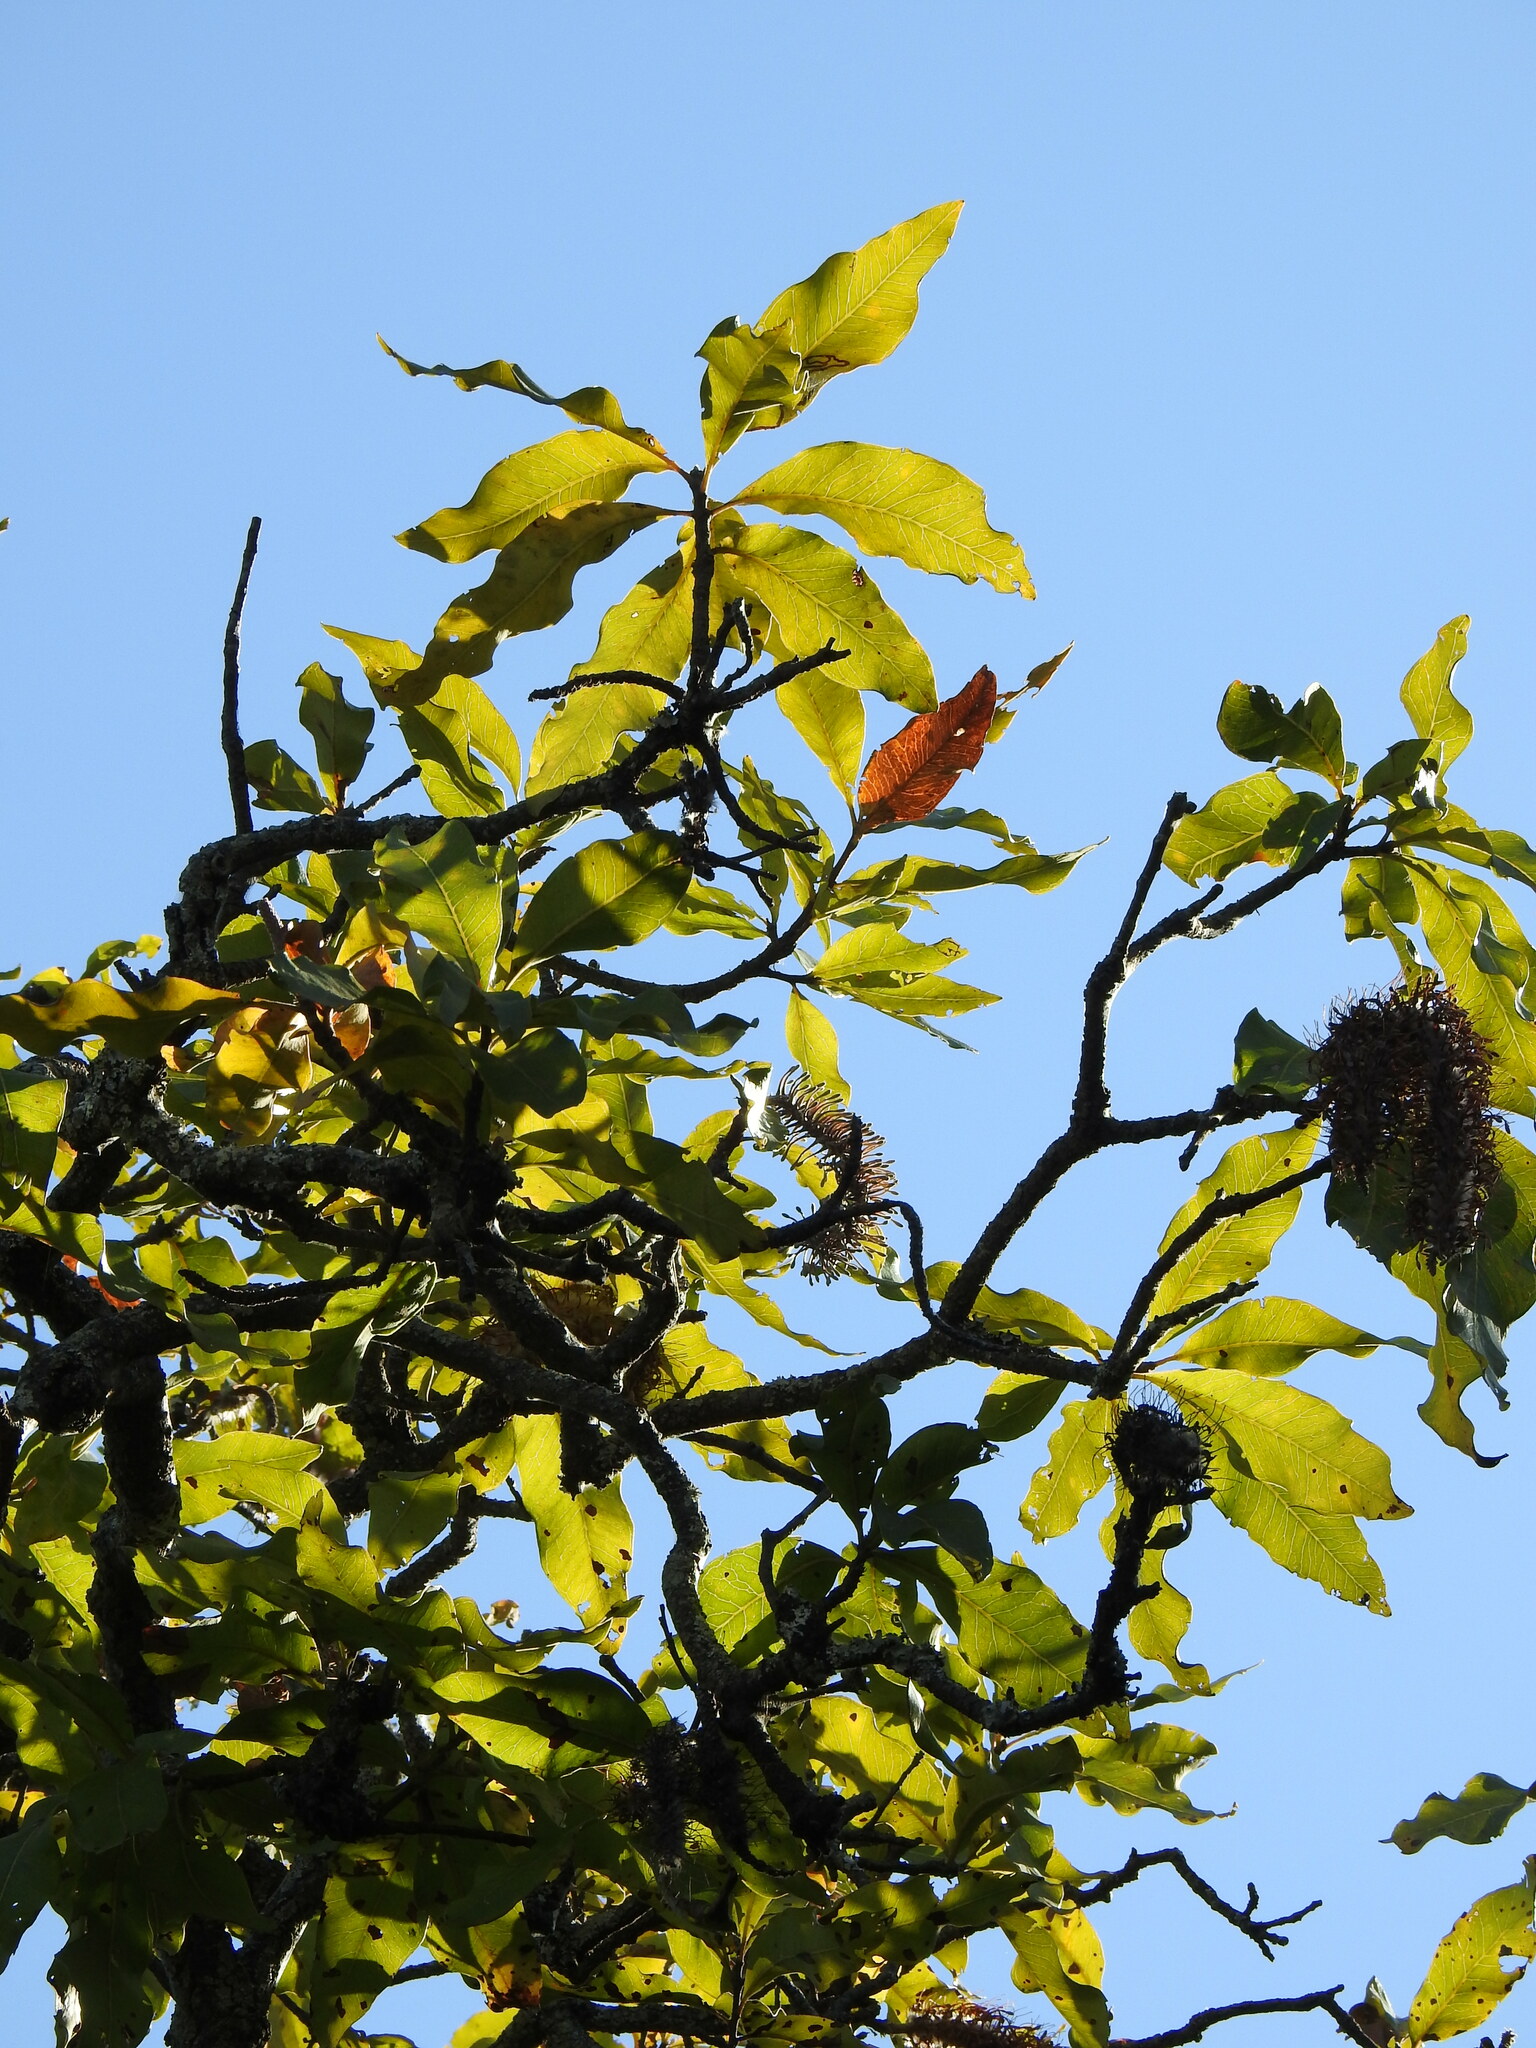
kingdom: Plantae
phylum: Tracheophyta
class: Magnoliopsida
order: Proteales
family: Proteaceae
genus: Faurea
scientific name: Faurea rochetiana
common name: Broad-leaved beech
